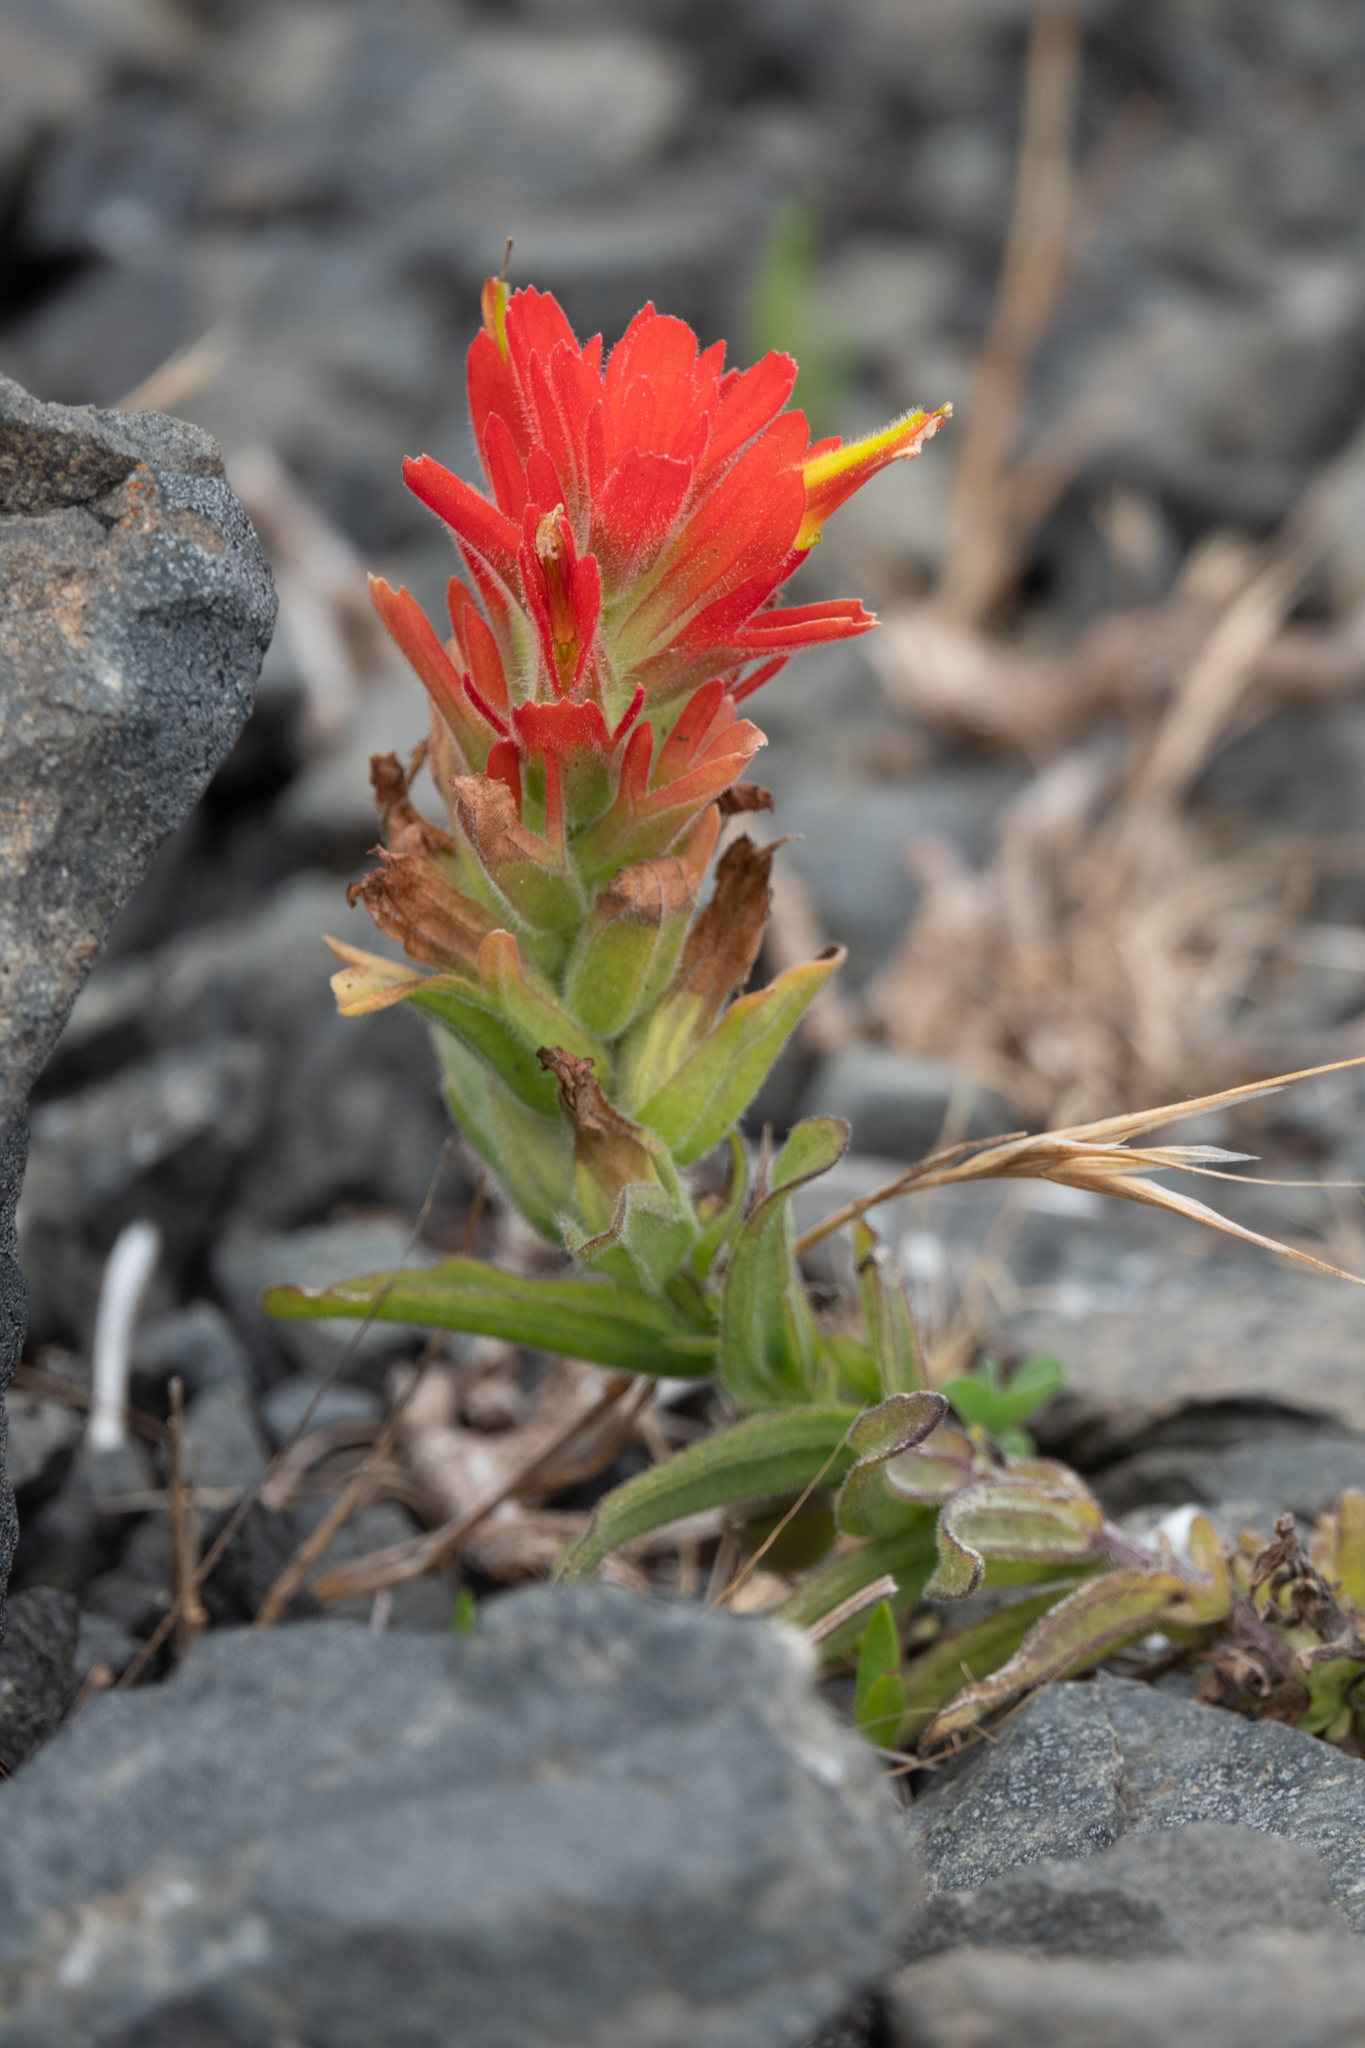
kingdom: Plantae
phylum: Tracheophyta
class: Magnoliopsida
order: Lamiales
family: Orobanchaceae
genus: Castilleja
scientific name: Castilleja litoralis
